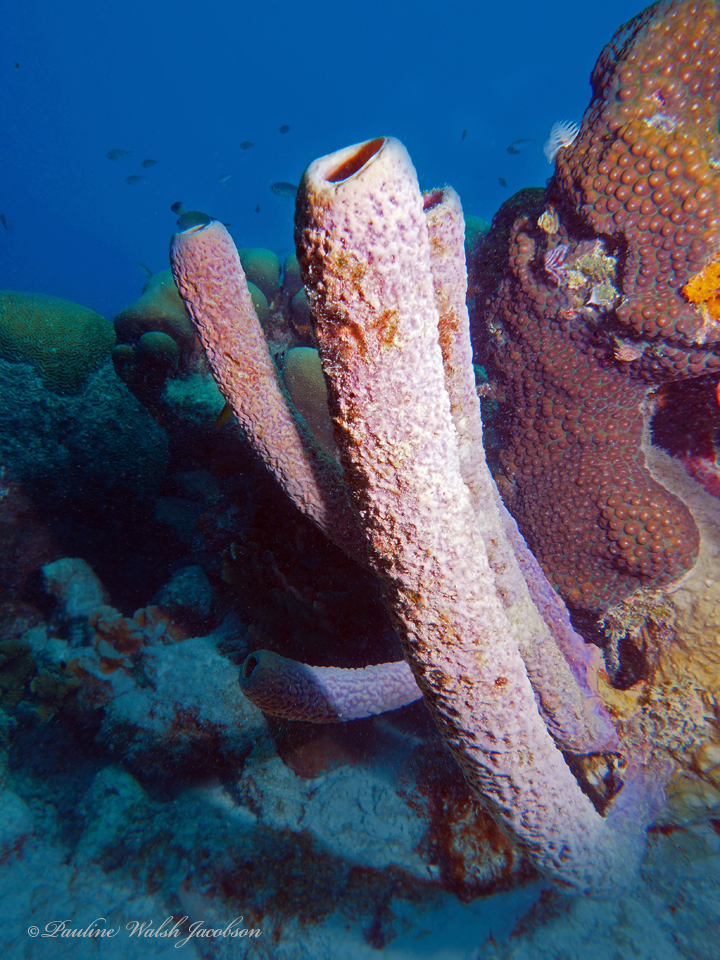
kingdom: Animalia
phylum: Porifera
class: Demospongiae
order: Verongiida
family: Aplysinidae
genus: Aplysina
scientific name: Aplysina archeri
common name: Stove-pipe sponge
